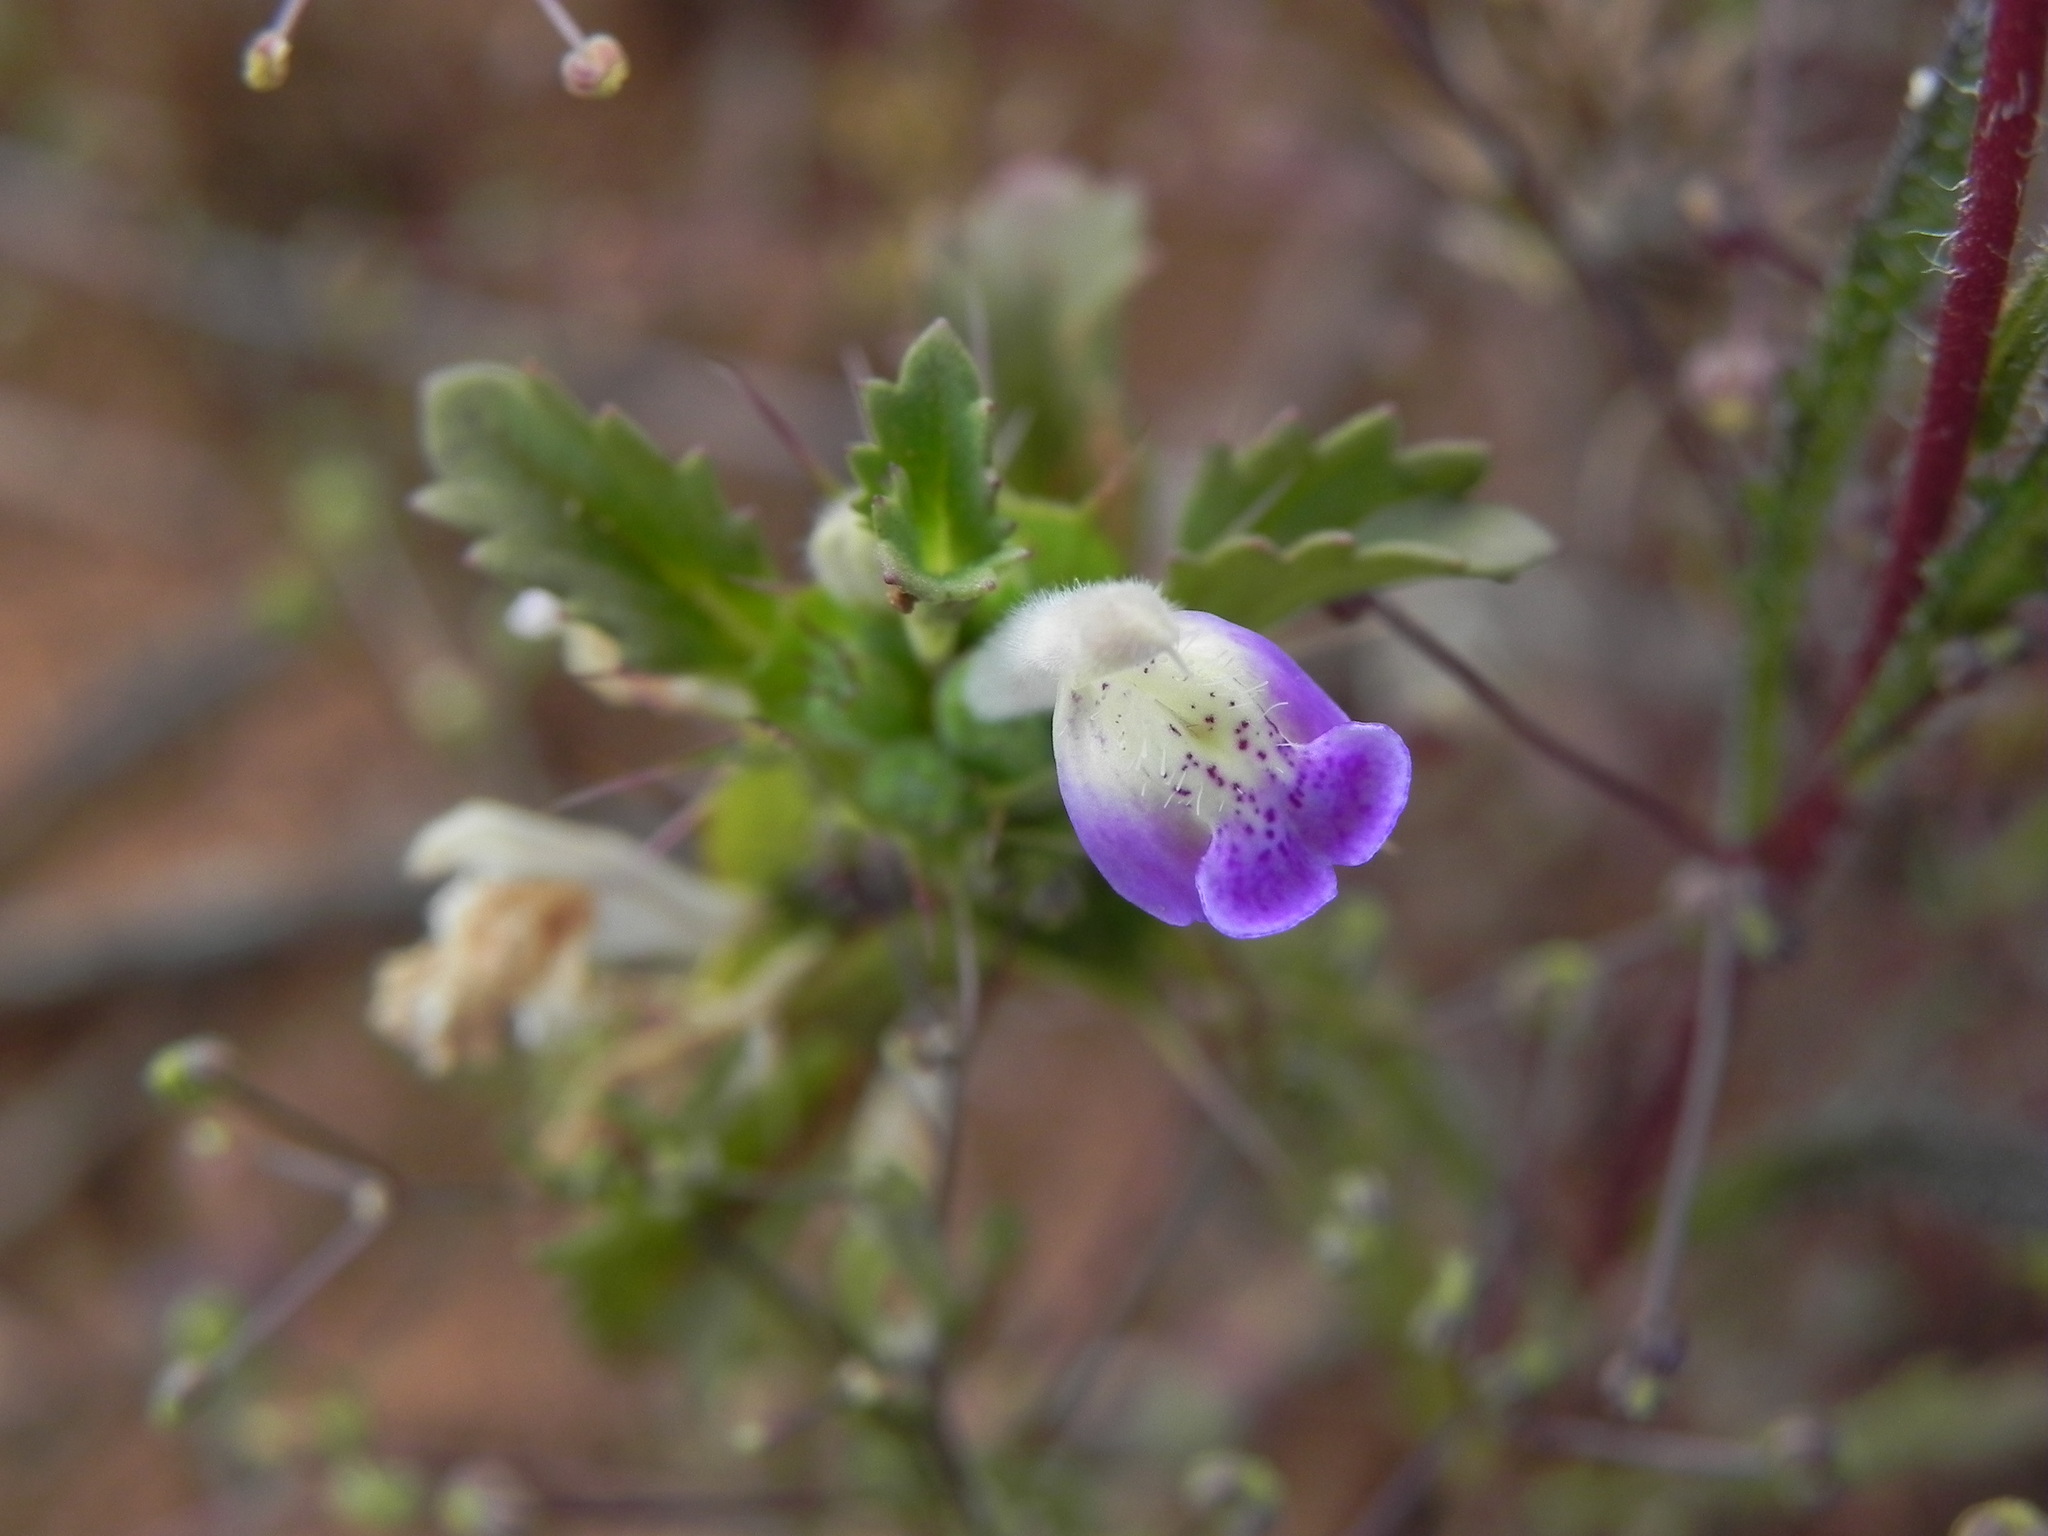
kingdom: Plantae
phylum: Tracheophyta
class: Magnoliopsida
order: Lamiales
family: Lamiaceae
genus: Acanthomintha
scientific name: Acanthomintha ilicifolia
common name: San diego thorn-mint
